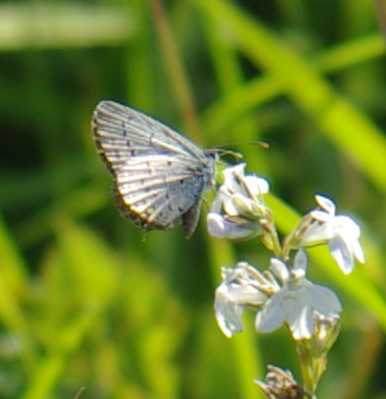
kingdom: Plantae
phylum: Tracheophyta
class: Magnoliopsida
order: Asterales
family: Campanulaceae
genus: Lobelia
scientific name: Lobelia spicata
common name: Pale-spike lobelia
